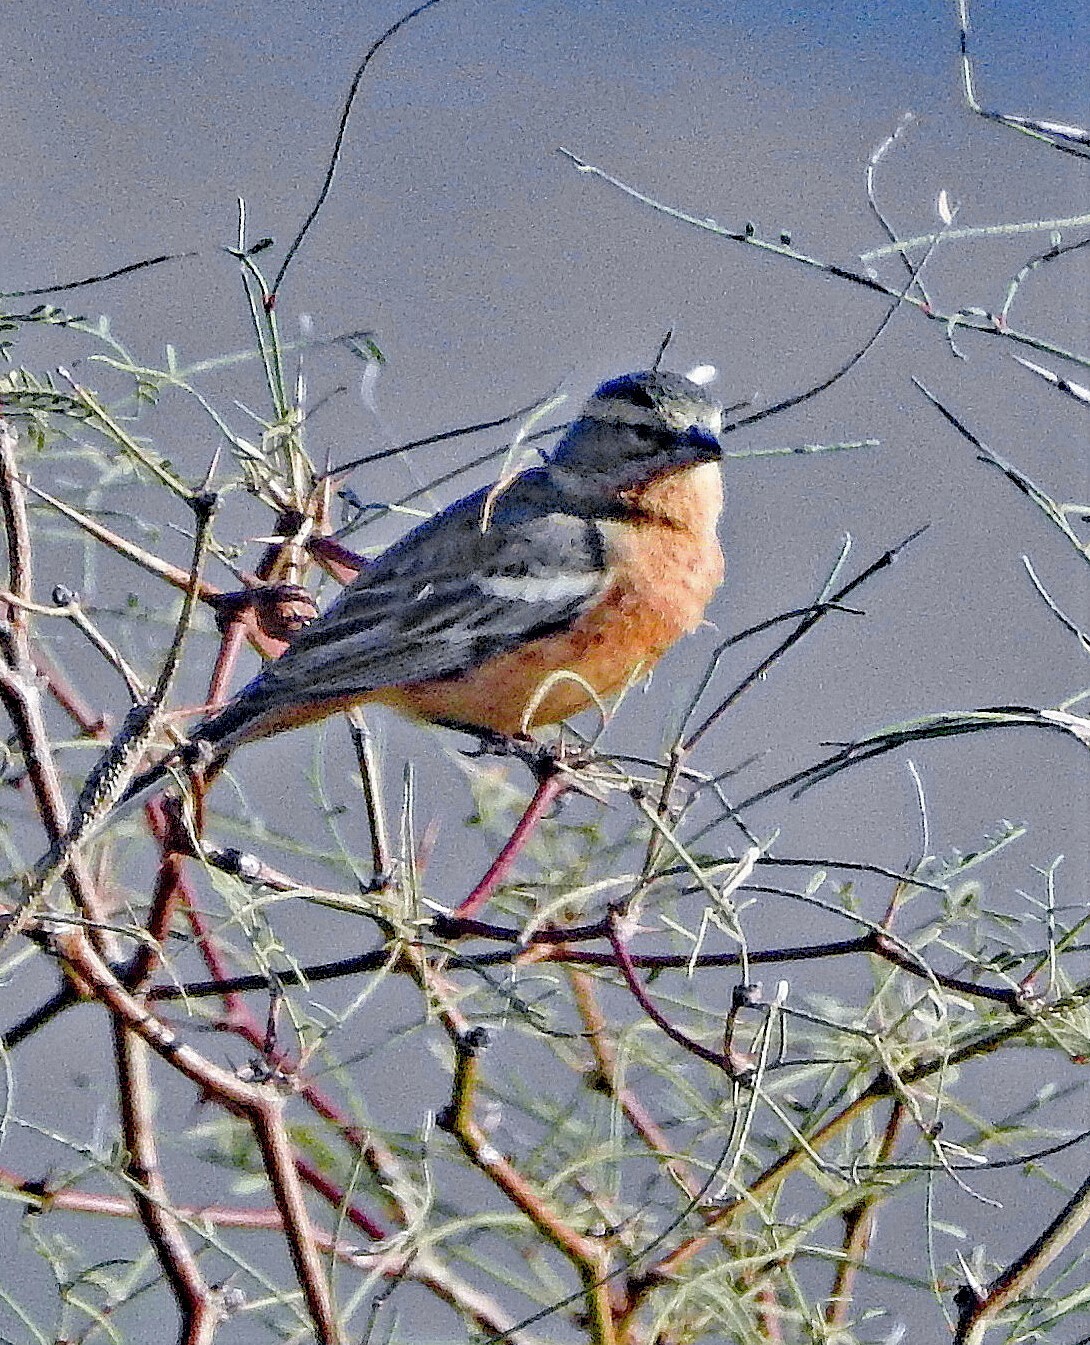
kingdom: Animalia
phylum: Chordata
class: Aves
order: Passeriformes
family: Thraupidae
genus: Poospiza
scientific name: Poospiza ornata
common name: Cinnamon warbling finch
